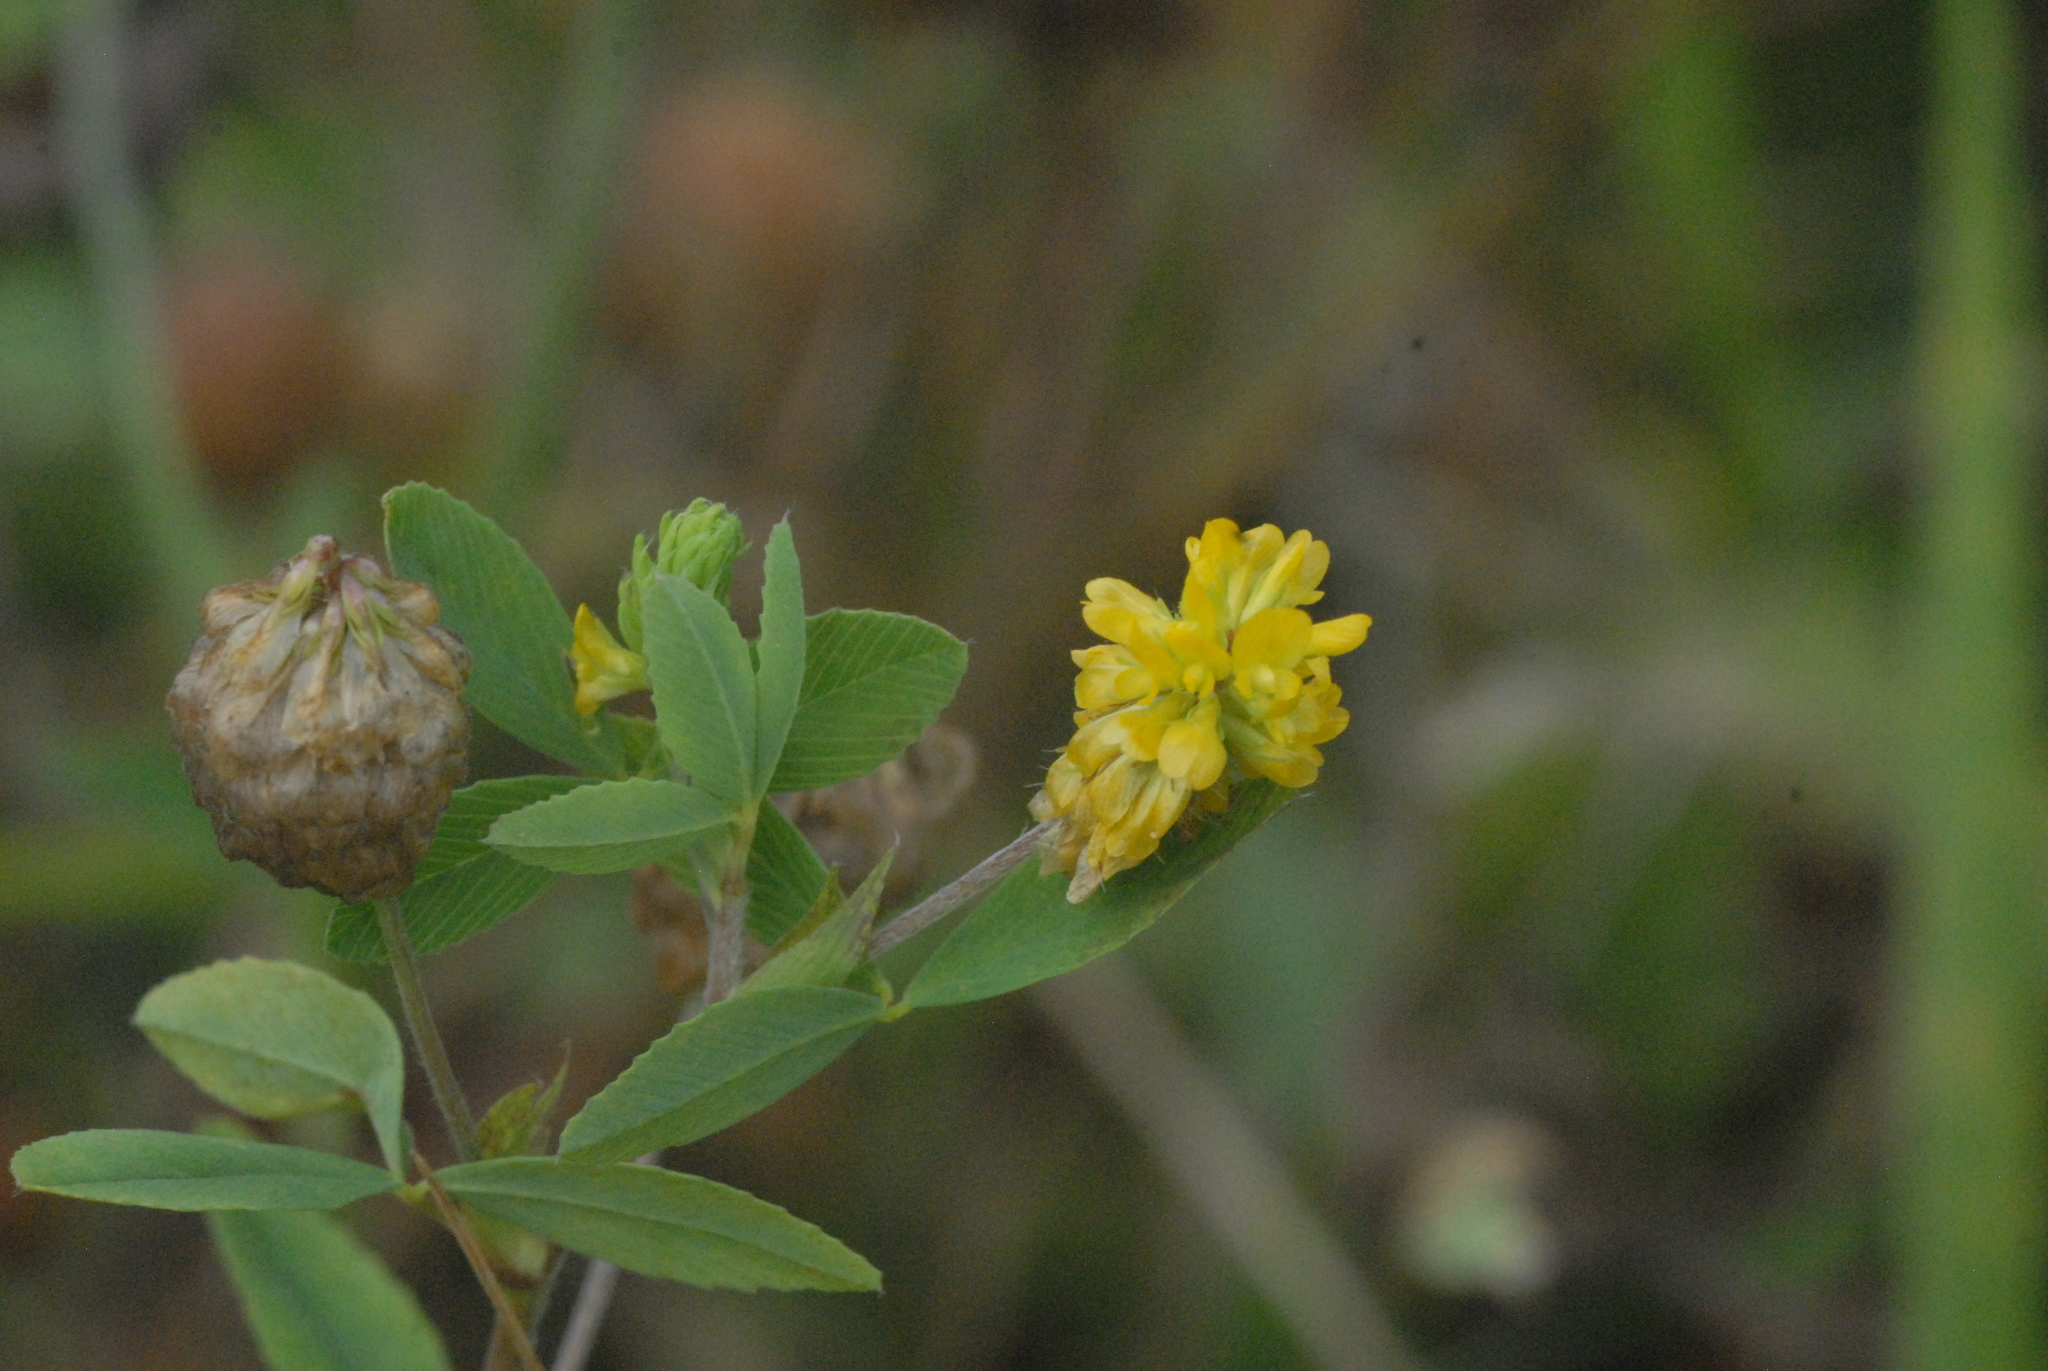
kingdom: Plantae
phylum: Tracheophyta
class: Magnoliopsida
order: Fabales
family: Fabaceae
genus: Trifolium
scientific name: Trifolium aureum
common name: Golden clover
